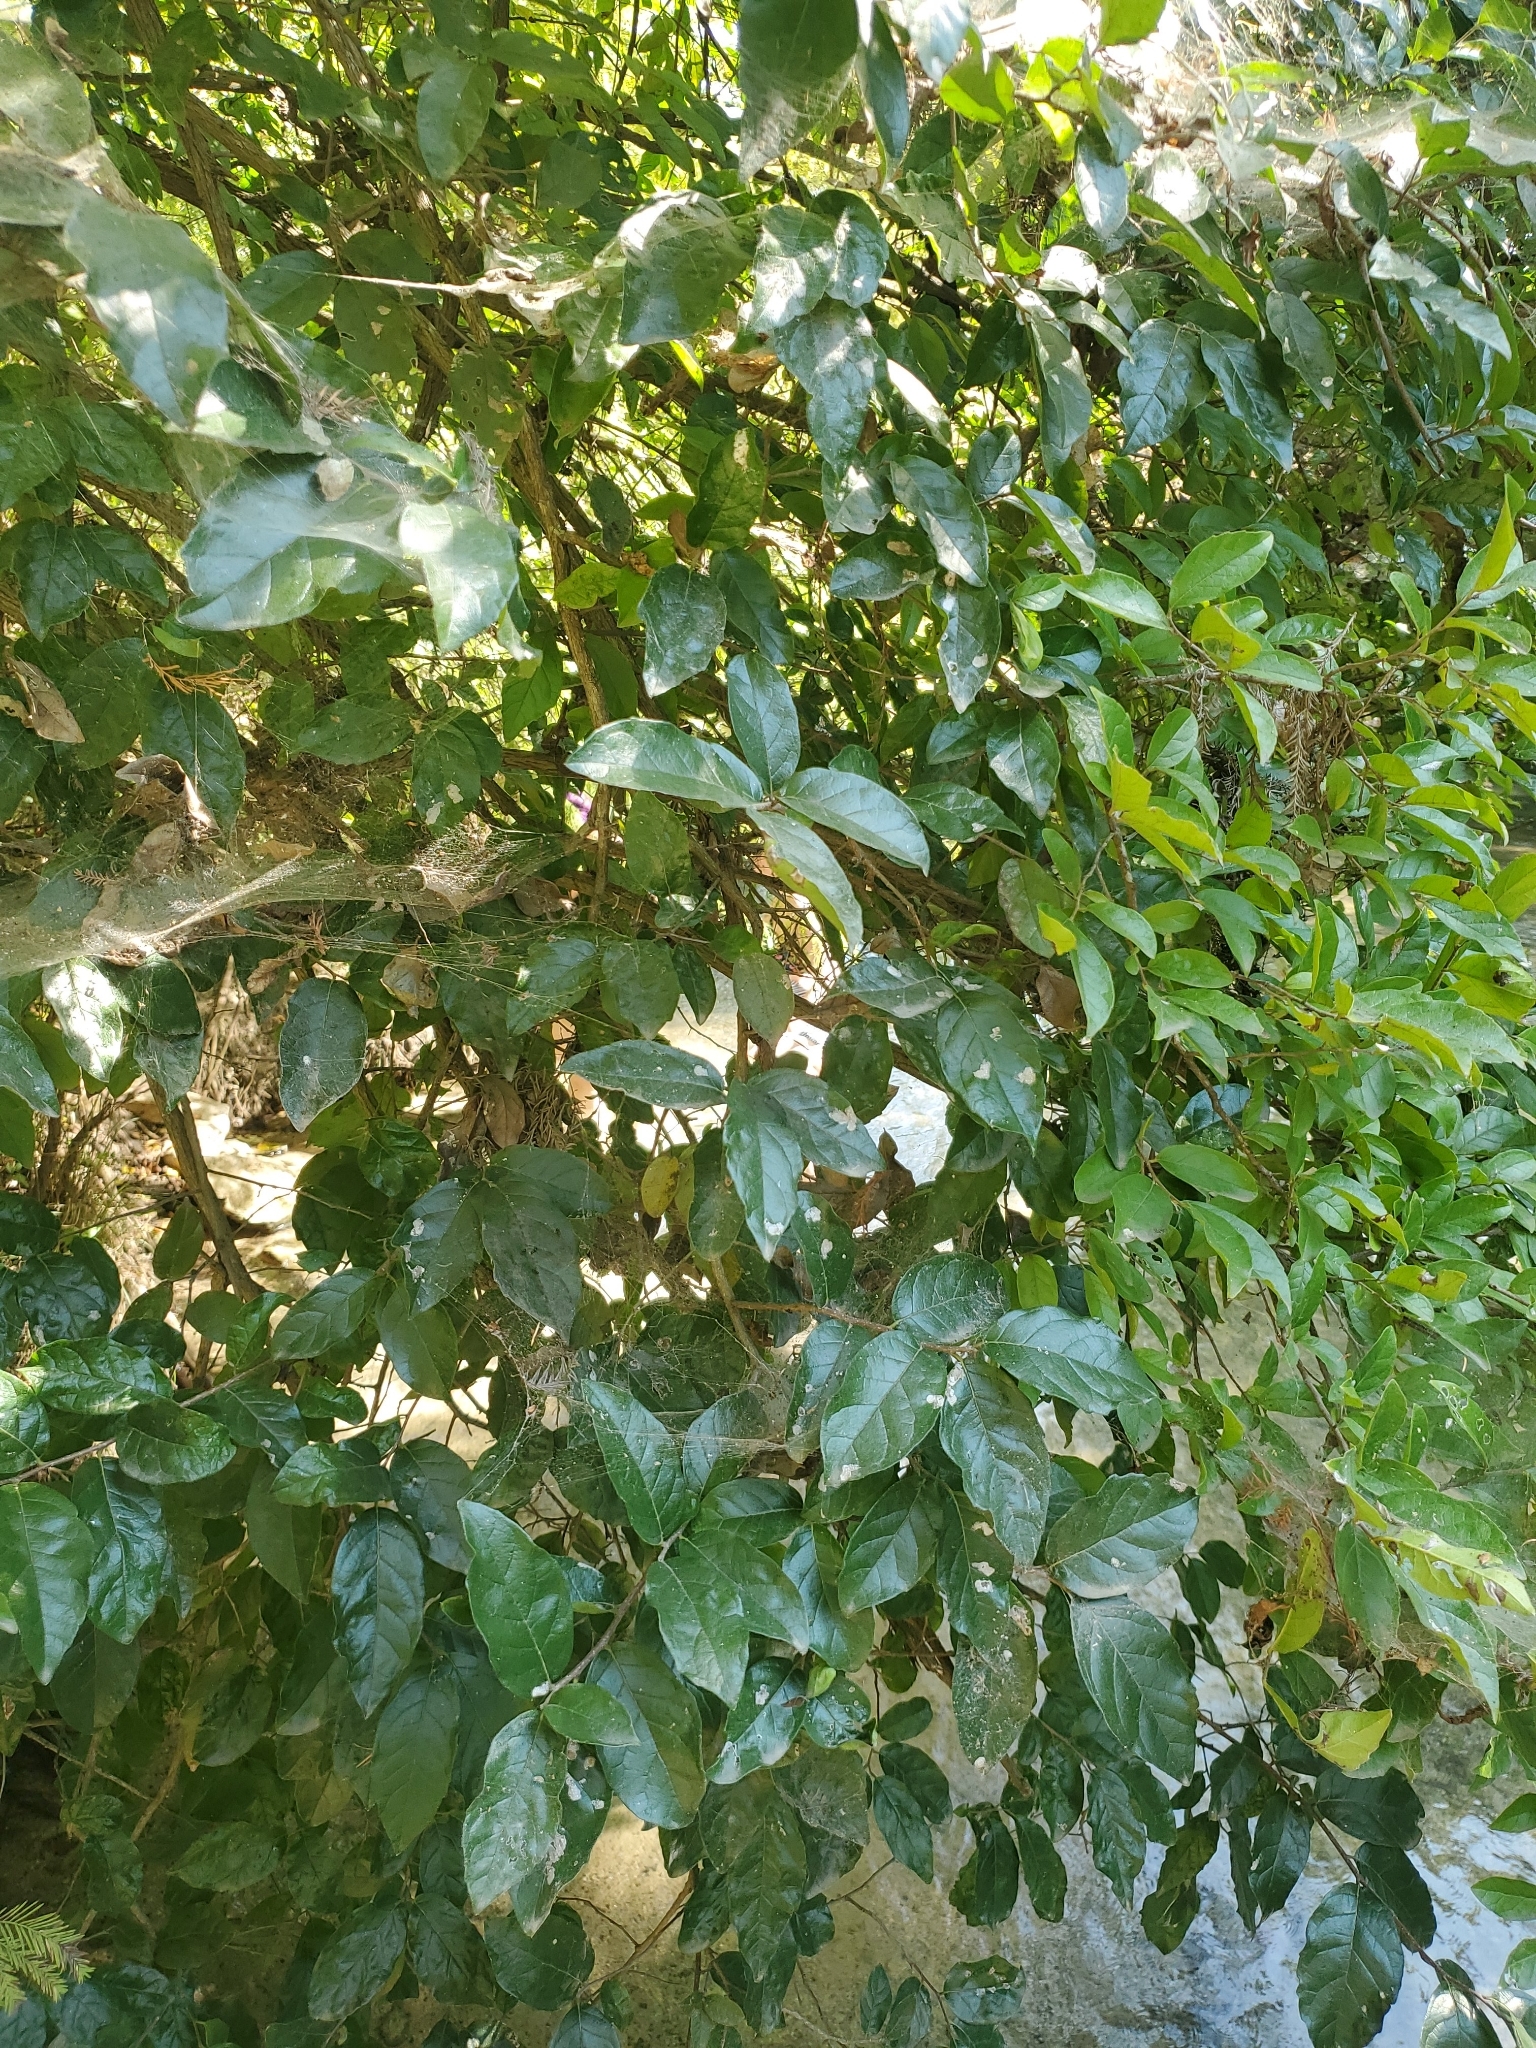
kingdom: Plantae
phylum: Tracheophyta
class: Magnoliopsida
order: Boraginales
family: Ehretiaceae
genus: Ehretia
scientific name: Ehretia anacua
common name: Sugarberry
